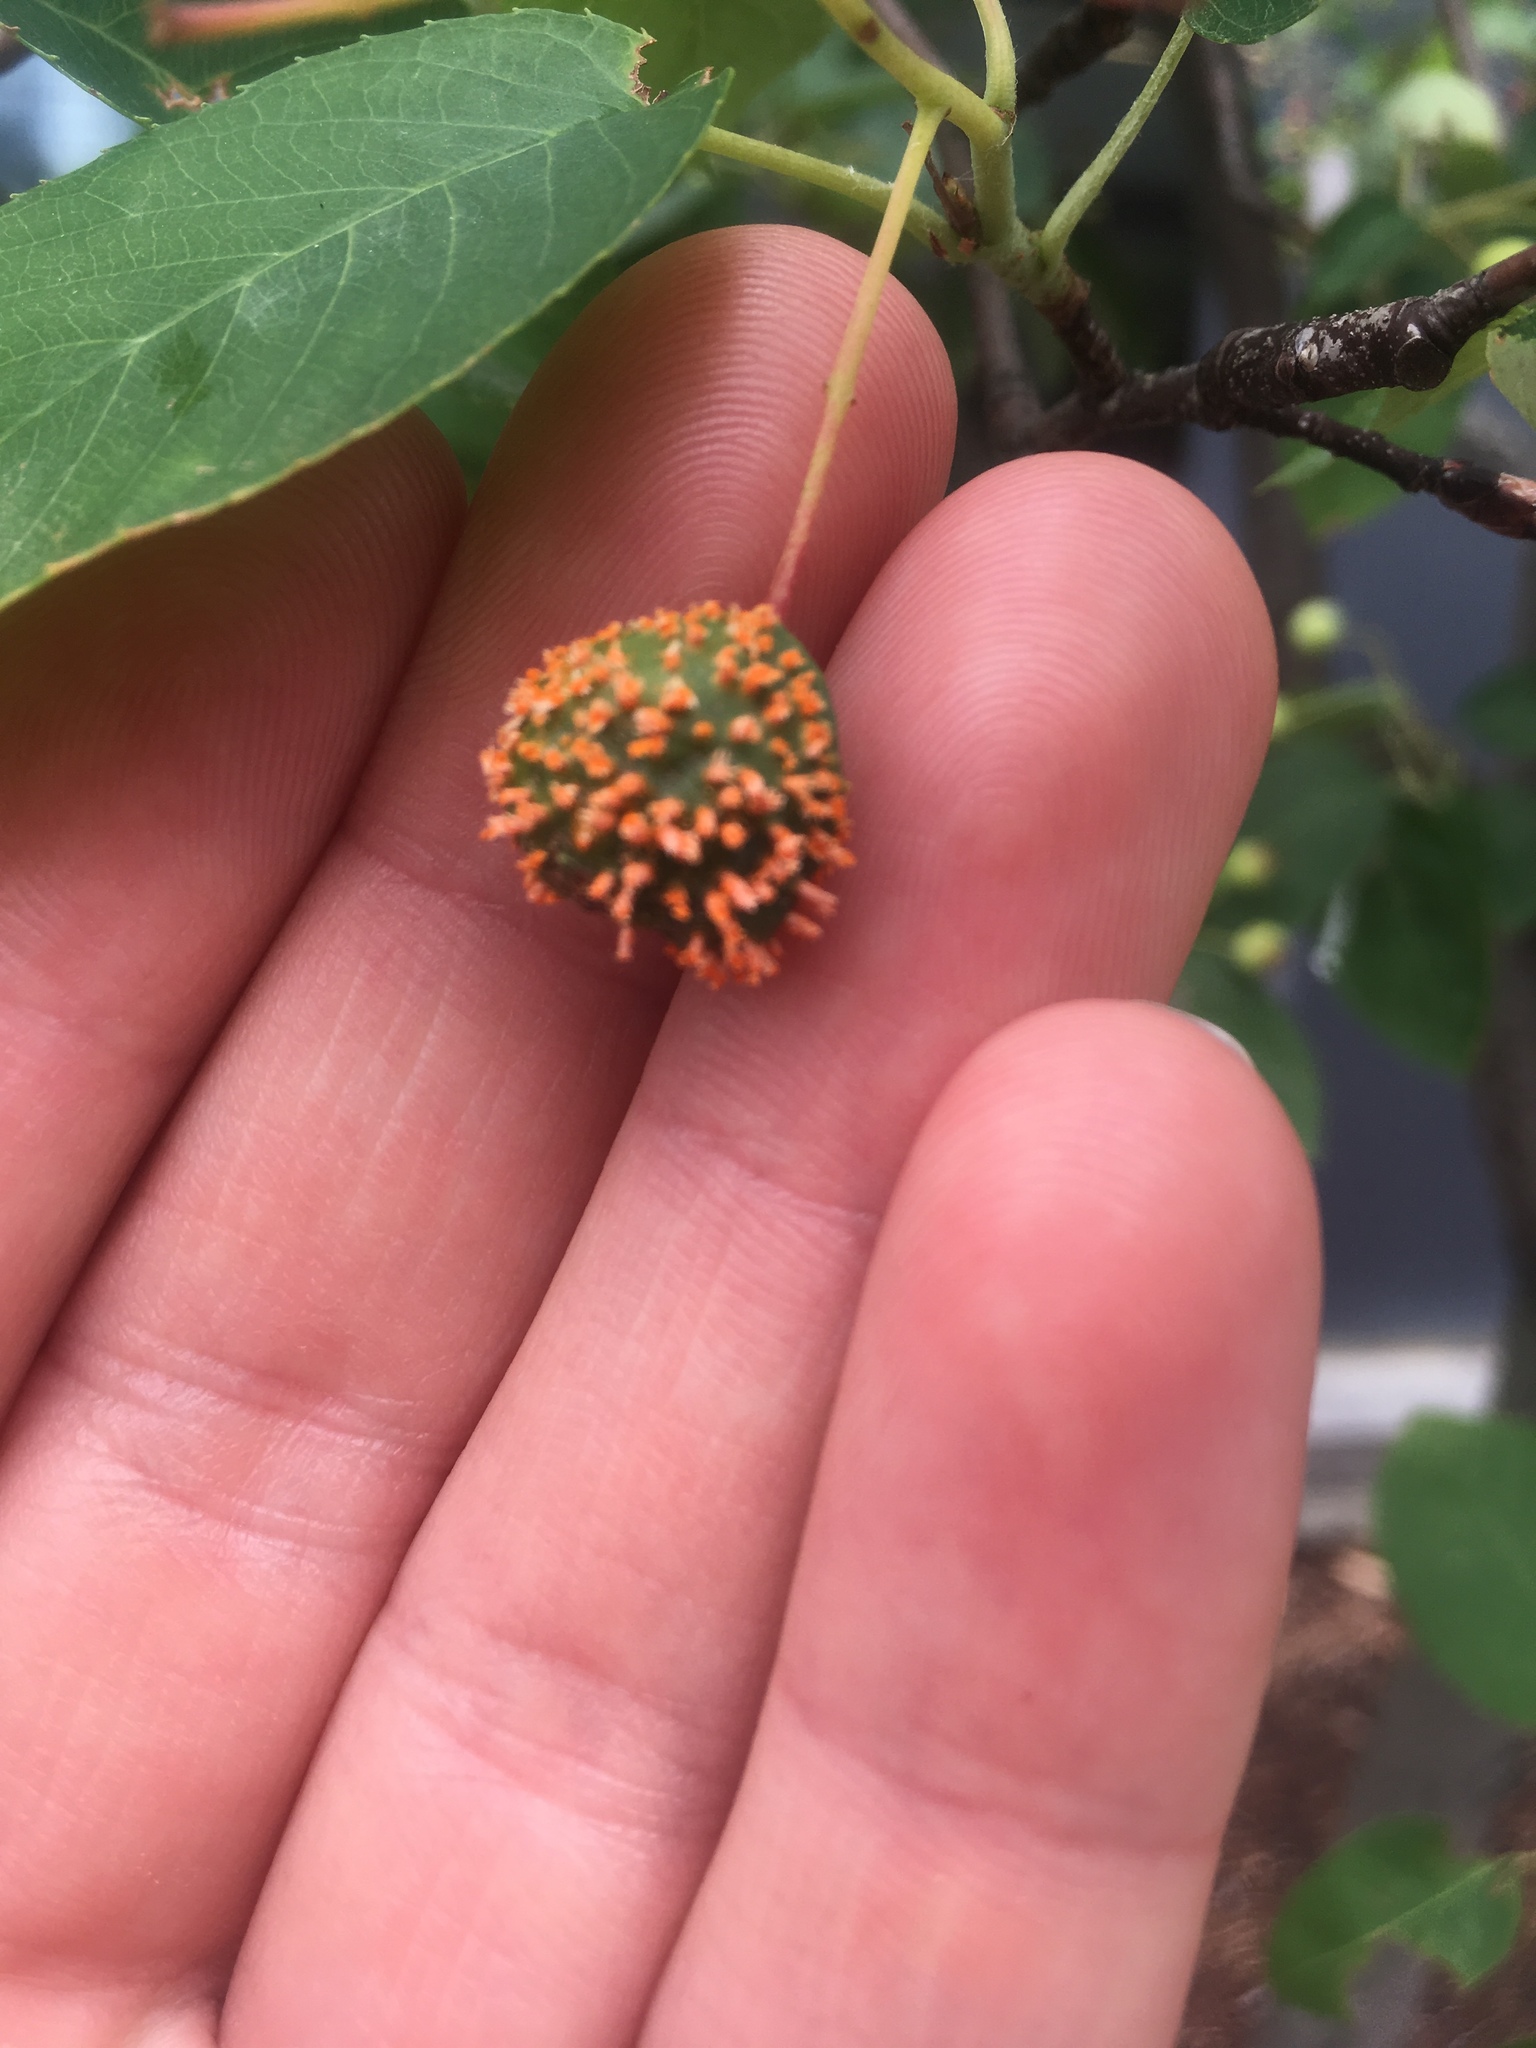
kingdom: Fungi
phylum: Basidiomycota
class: Pucciniomycetes
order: Pucciniales
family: Gymnosporangiaceae
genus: Gymnosporangium
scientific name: Gymnosporangium juniperi-virginianae
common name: Juniper-apple rust
